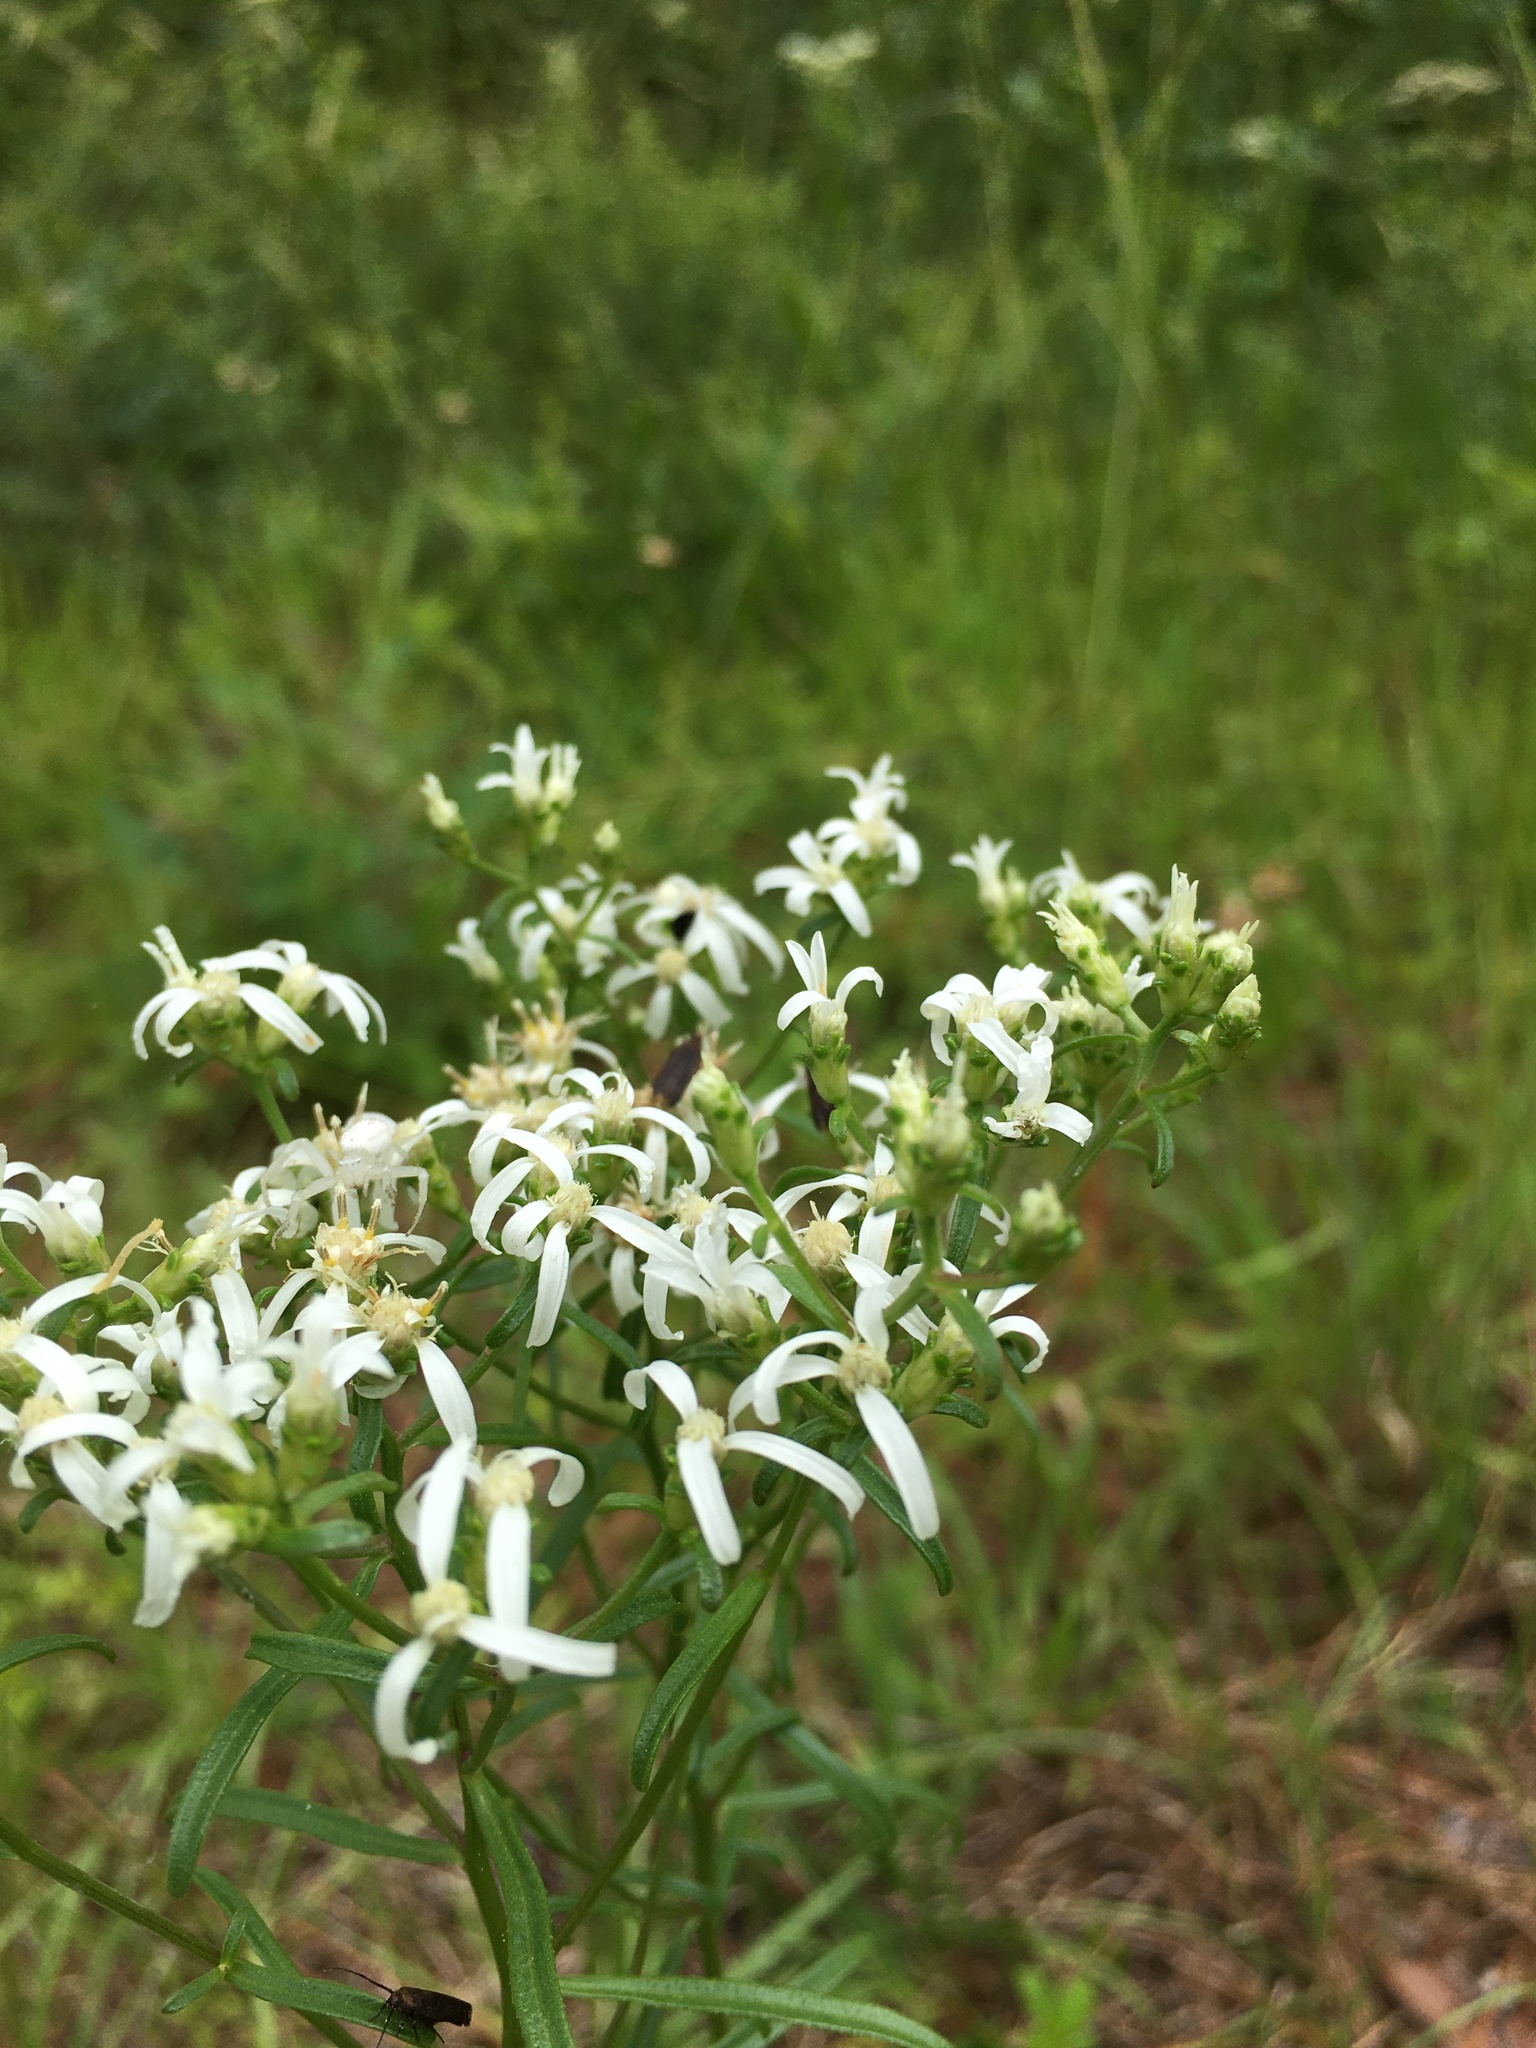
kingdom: Plantae
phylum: Tracheophyta
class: Magnoliopsida
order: Asterales
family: Asteraceae
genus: Sericocarpus
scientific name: Sericocarpus linifolius
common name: Narrow-leaf aster
